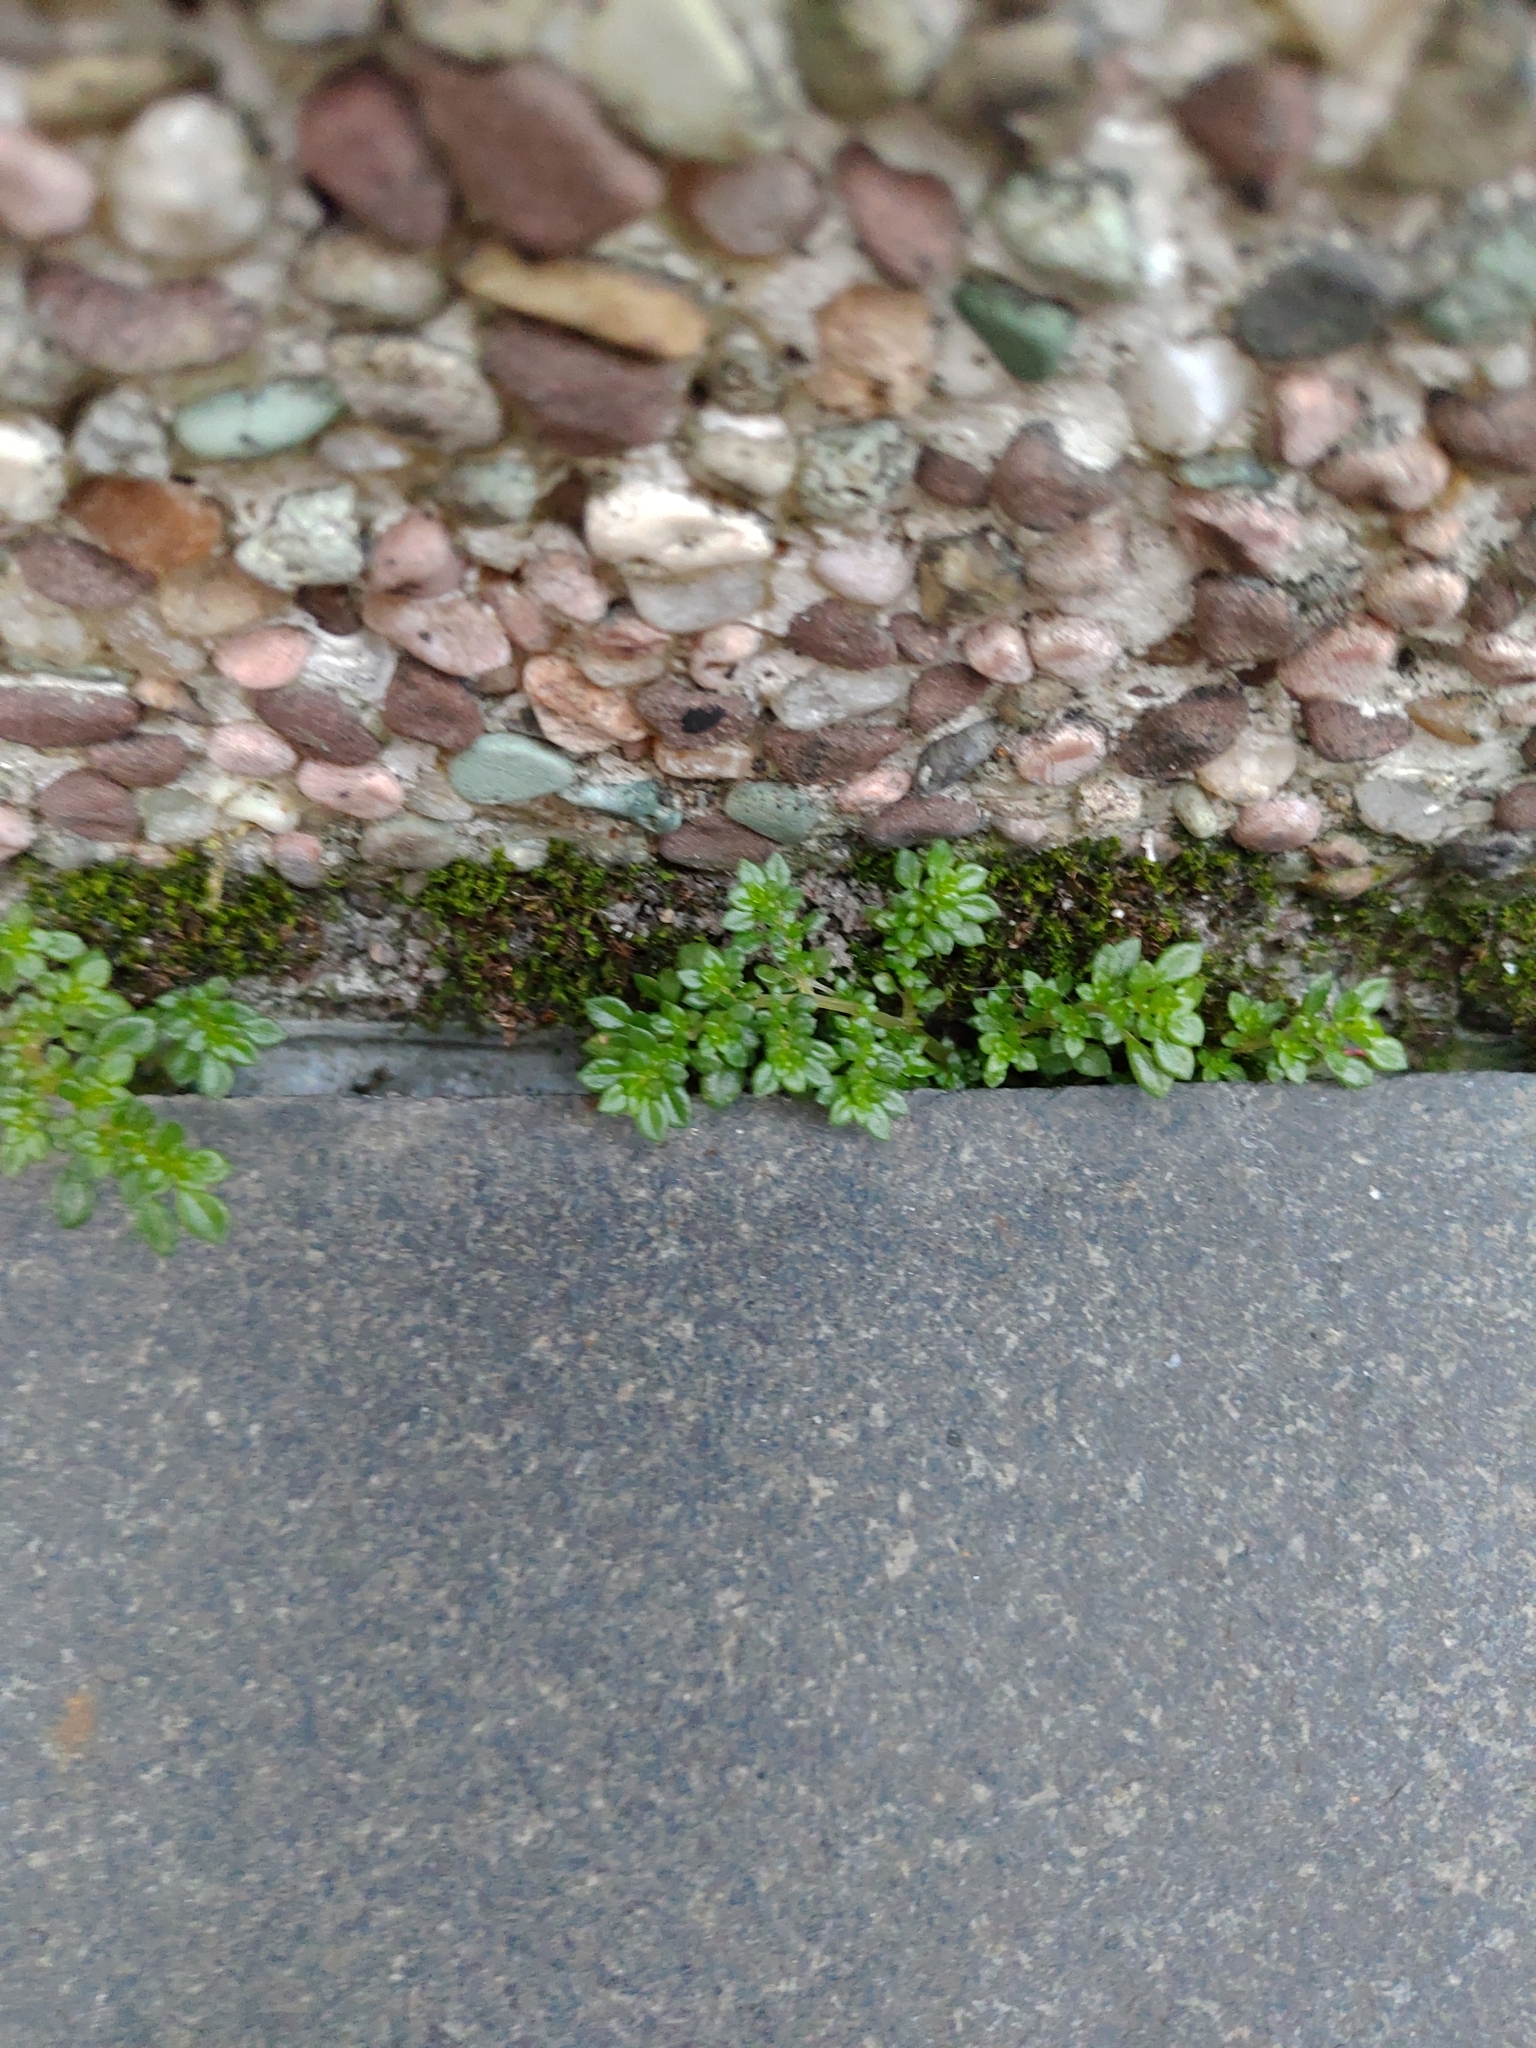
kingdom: Plantae
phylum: Tracheophyta
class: Magnoliopsida
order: Rosales
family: Urticaceae
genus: Pilea
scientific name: Pilea microphylla
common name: Artillery-plant
